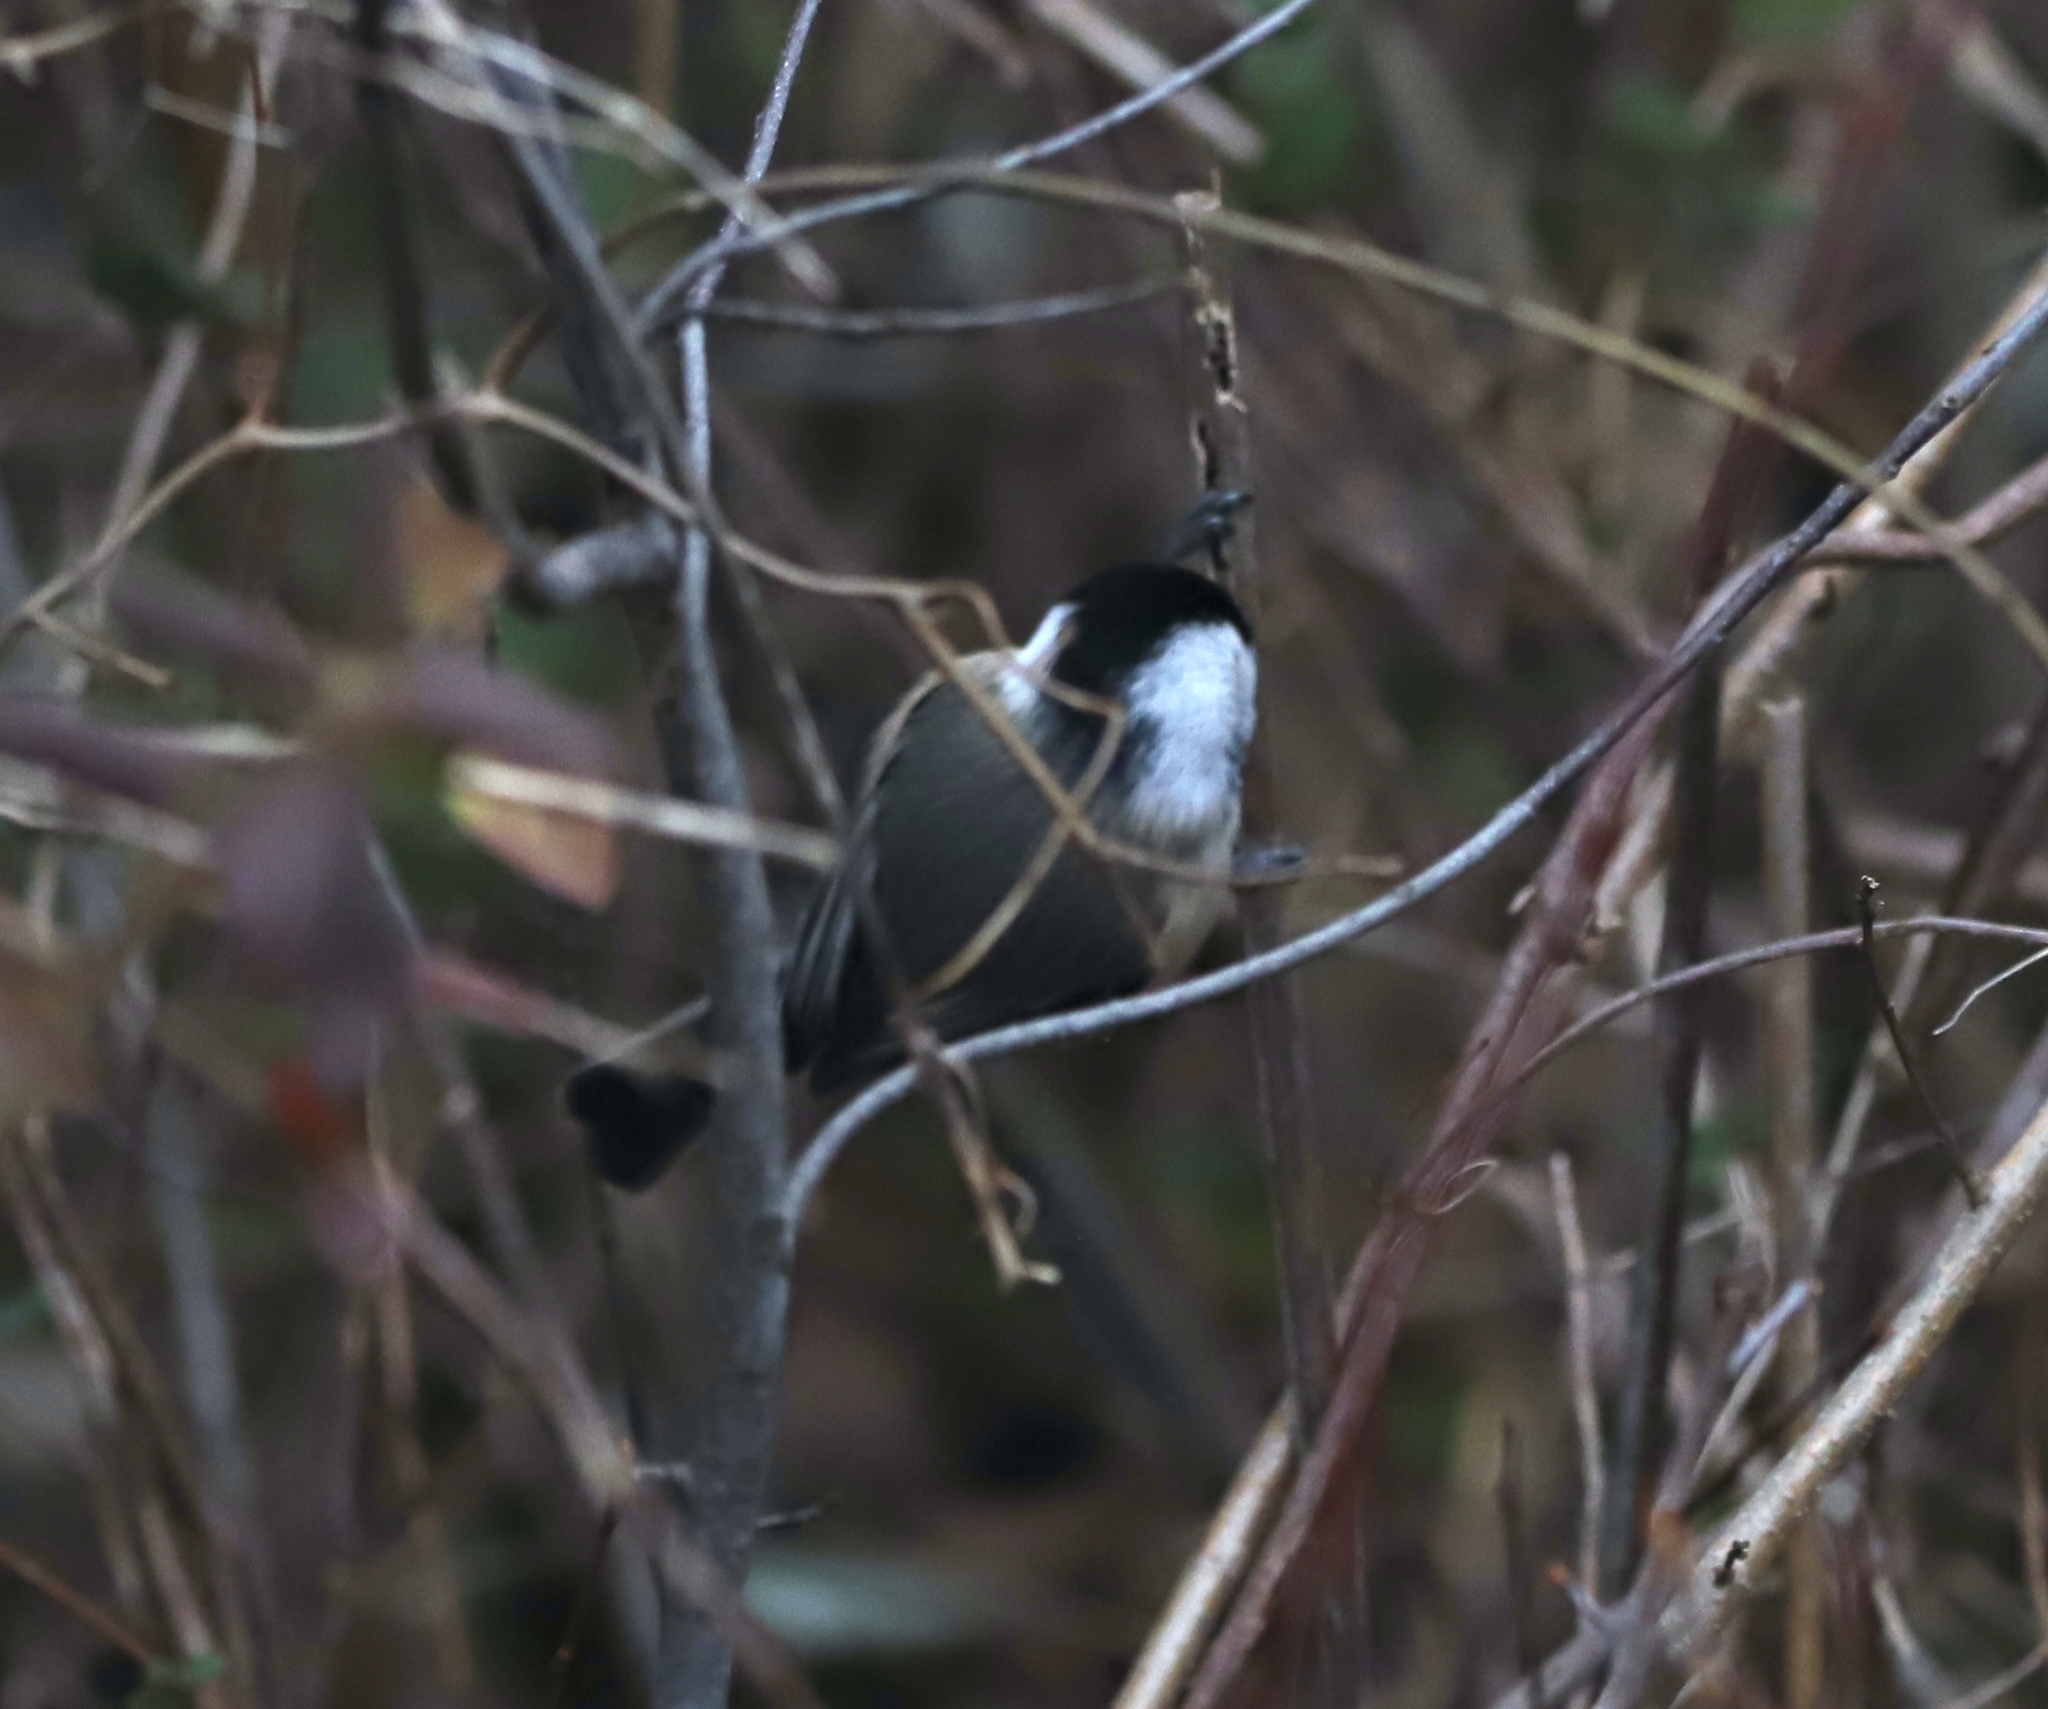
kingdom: Animalia
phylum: Chordata
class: Aves
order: Passeriformes
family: Paridae
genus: Poecile
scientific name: Poecile atricapillus
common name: Black-capped chickadee
